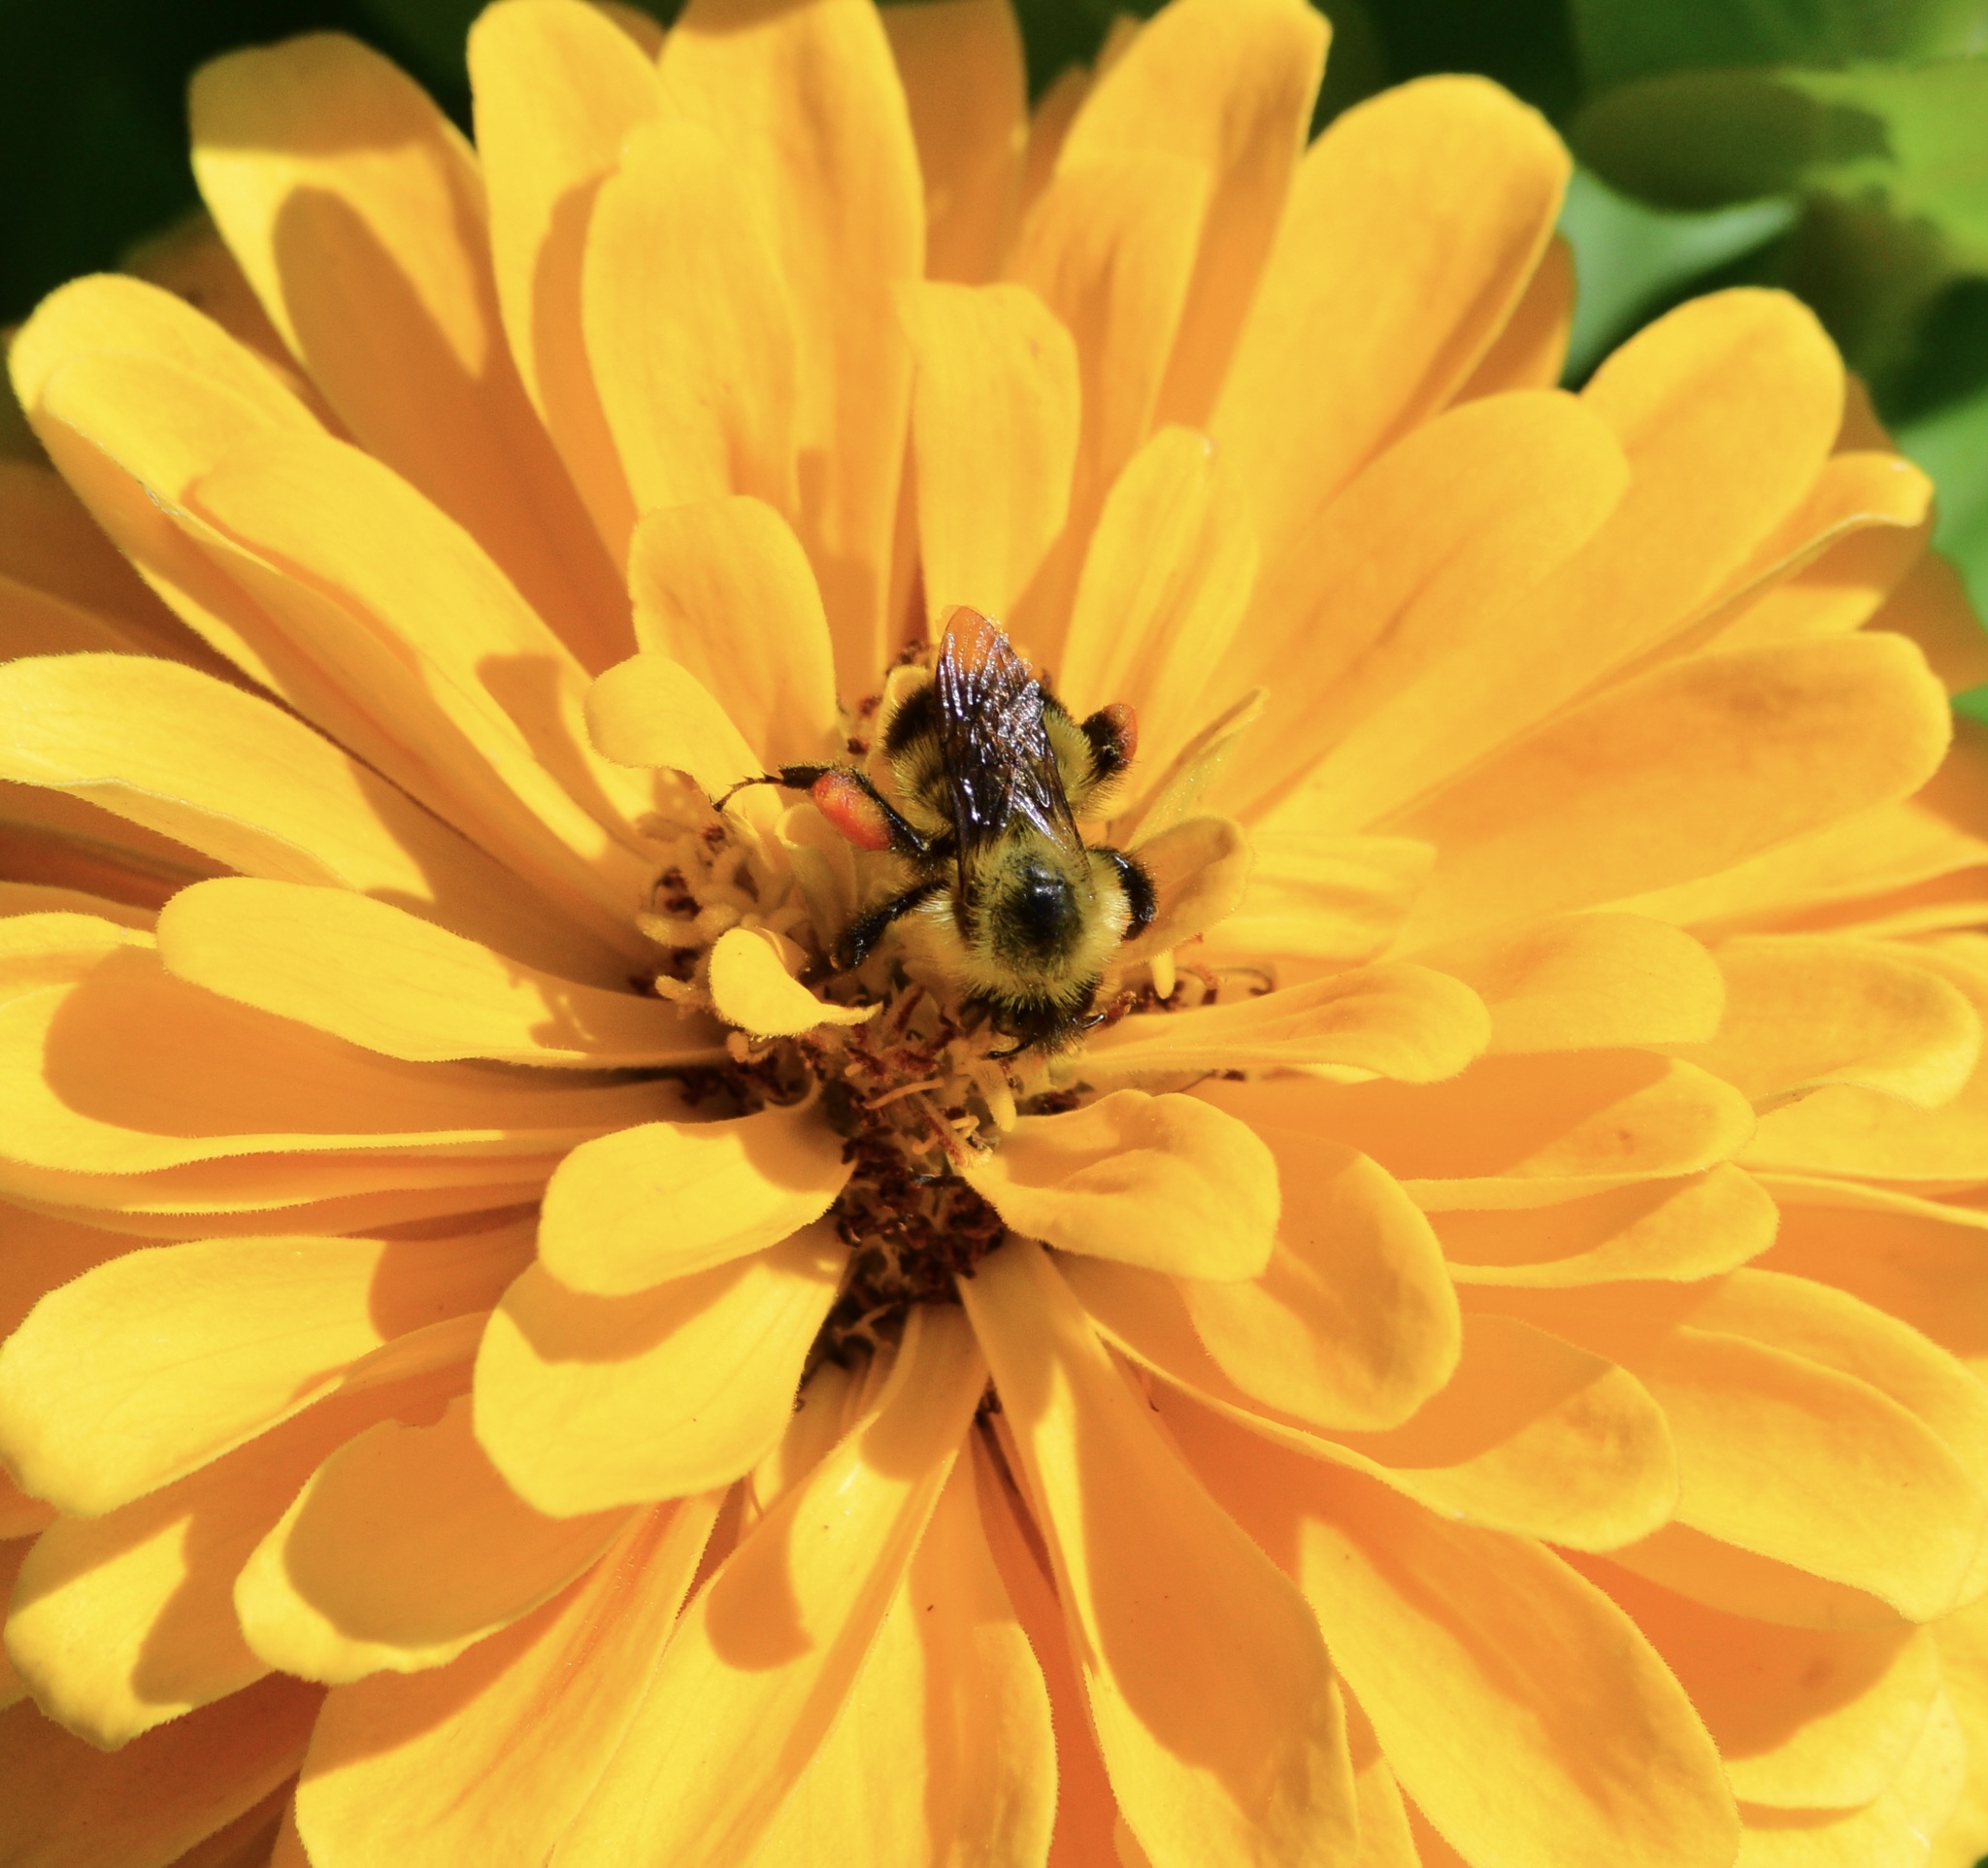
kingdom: Animalia
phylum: Arthropoda
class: Insecta
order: Hymenoptera
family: Apidae
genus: Pyrobombus
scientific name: Pyrobombus
